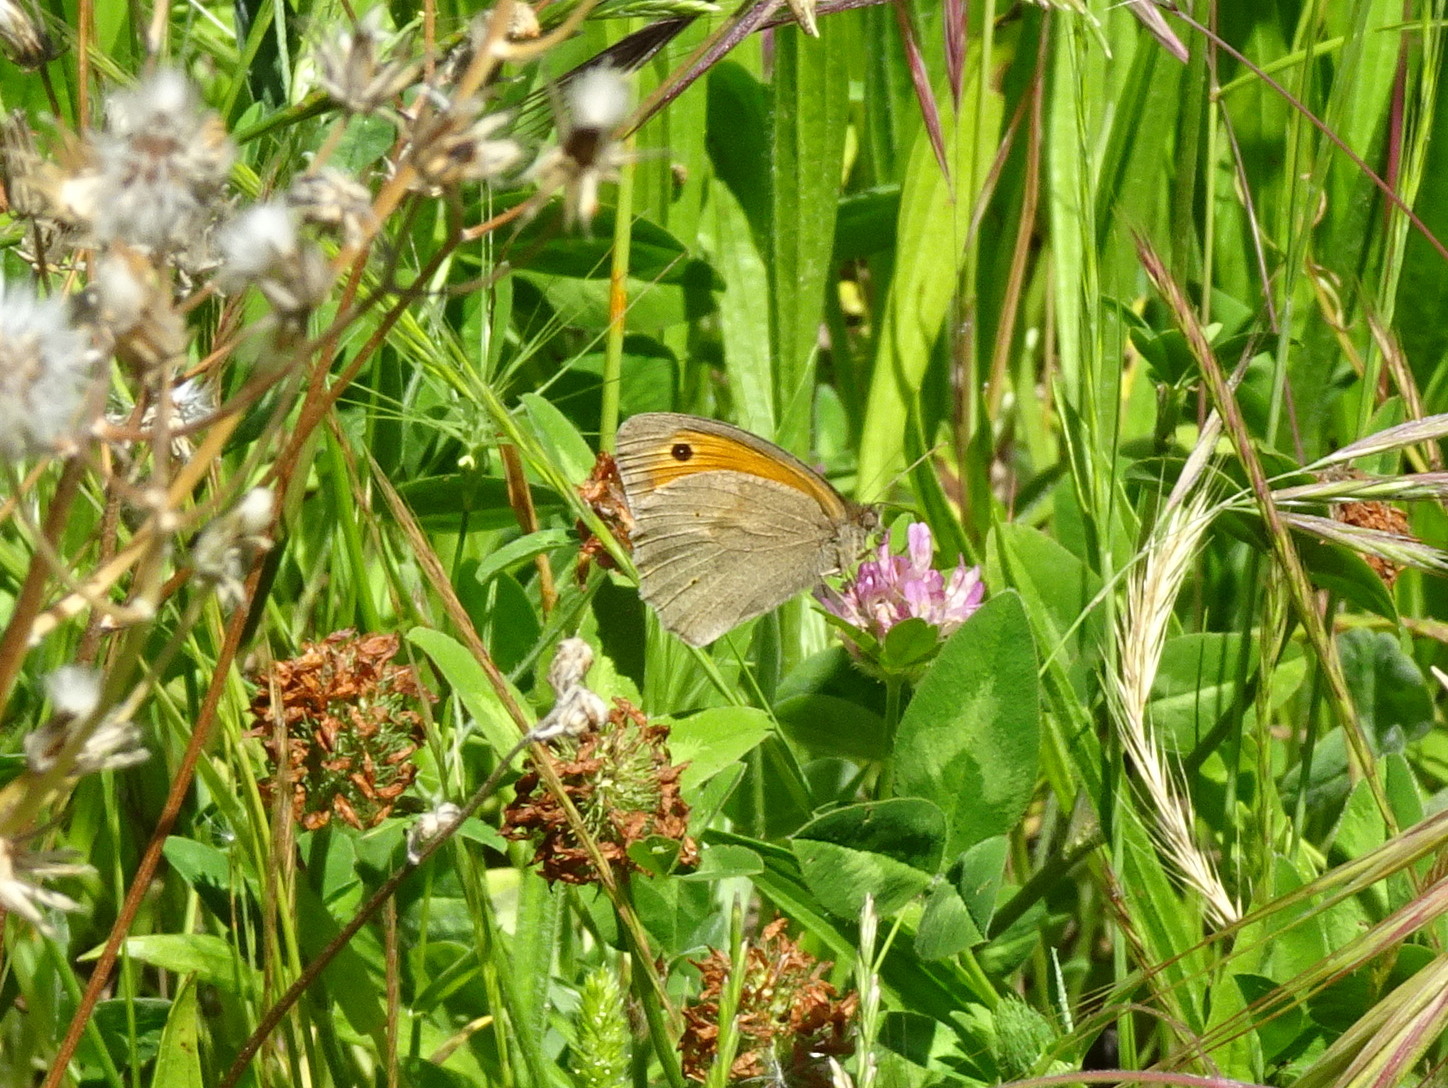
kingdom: Animalia
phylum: Arthropoda
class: Insecta
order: Lepidoptera
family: Nymphalidae
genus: Maniola
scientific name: Maniola jurtina
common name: Meadow brown
